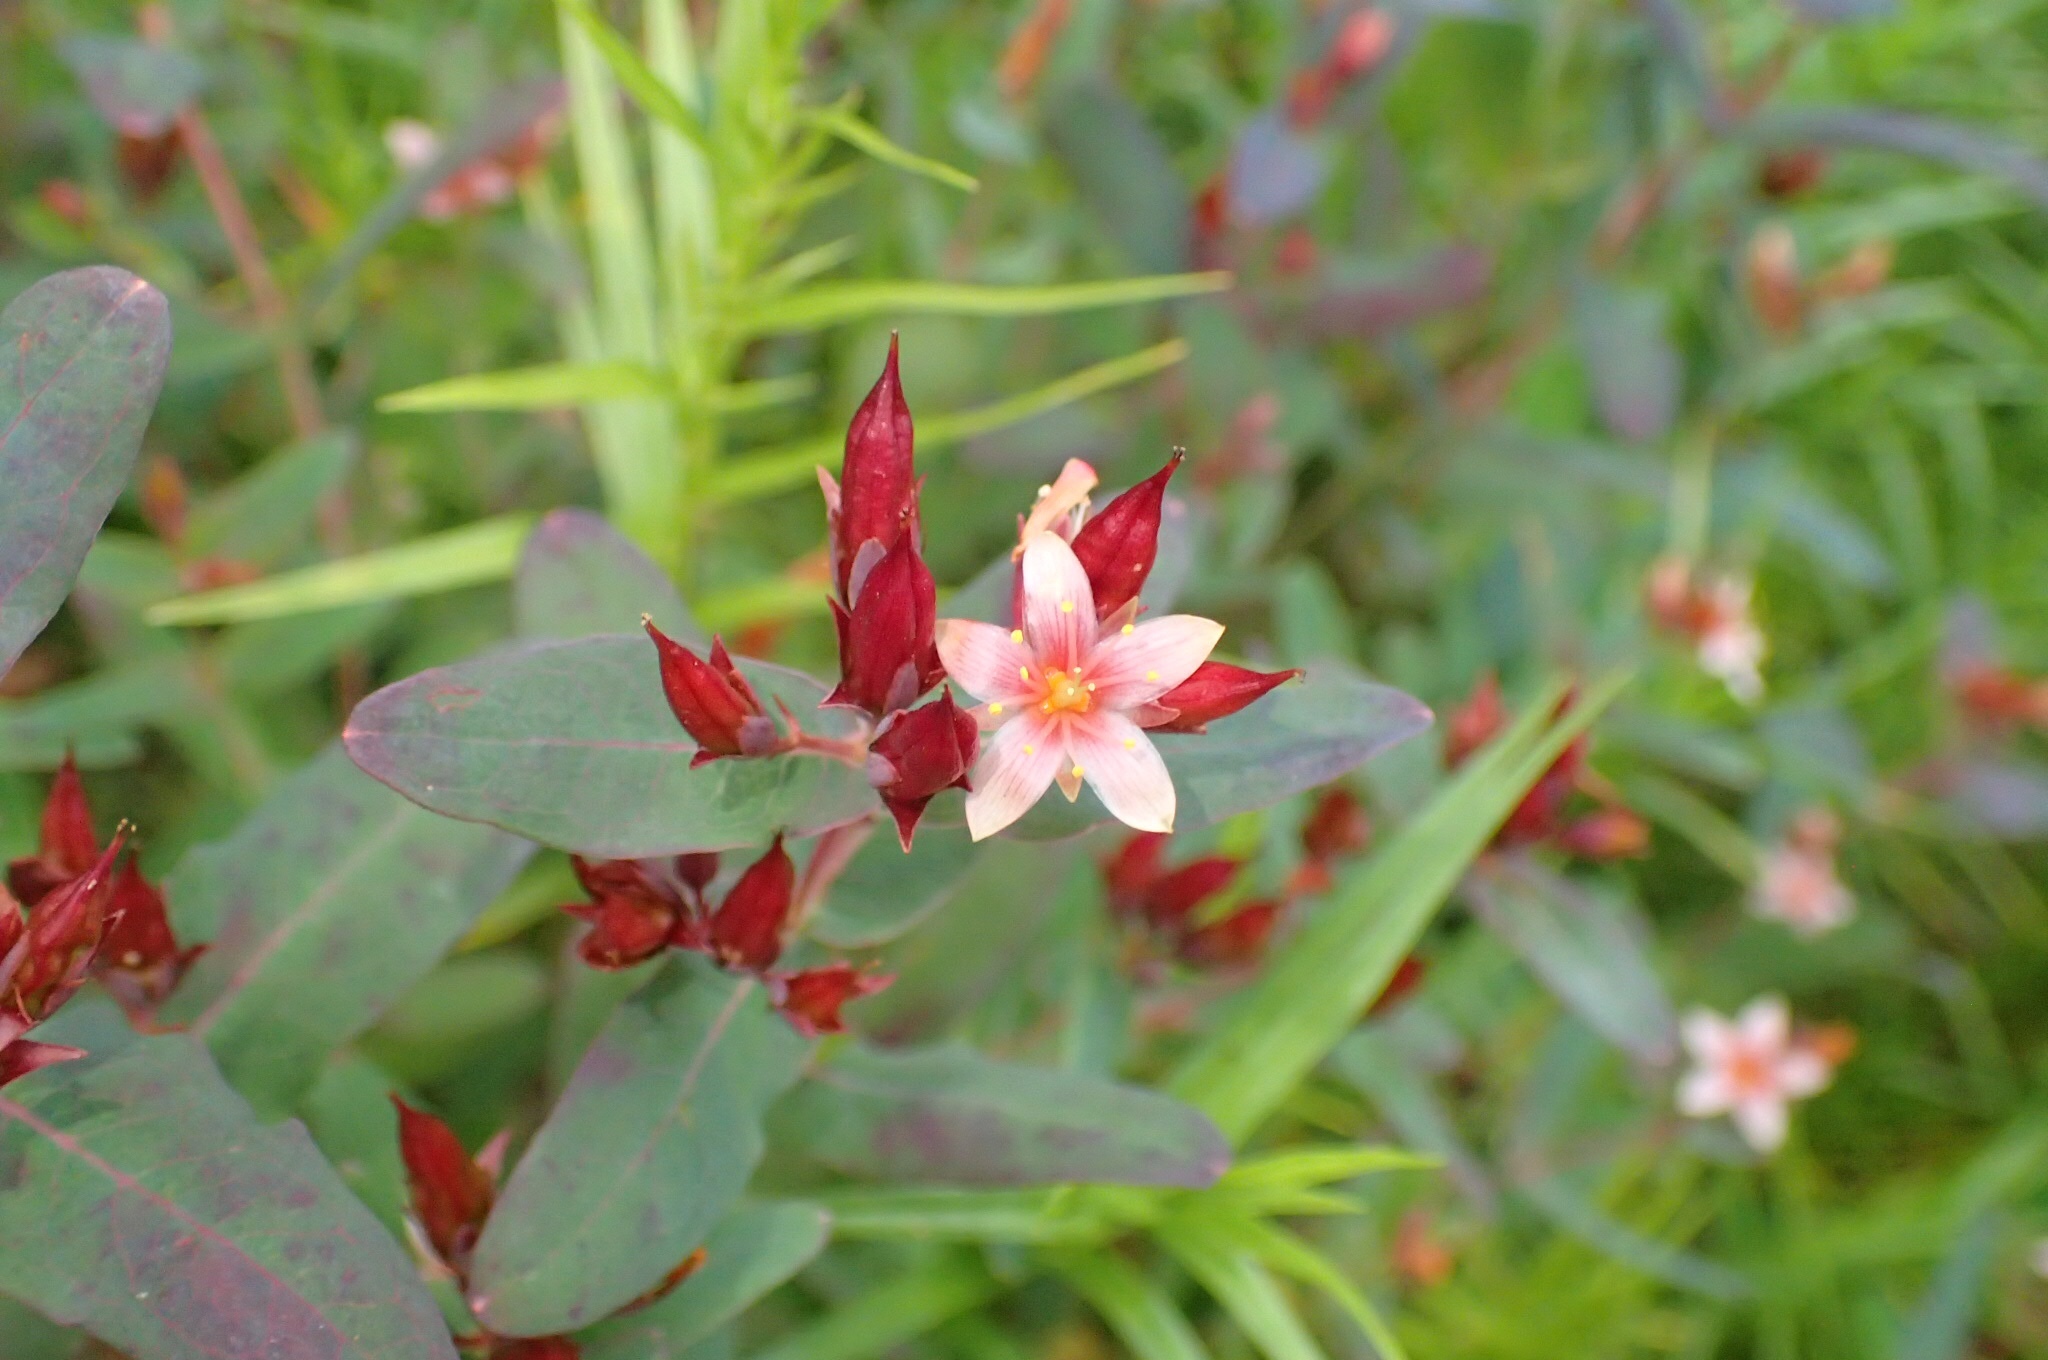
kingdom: Plantae
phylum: Tracheophyta
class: Magnoliopsida
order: Malpighiales
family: Hypericaceae
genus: Triadenum
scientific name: Triadenum virginicum
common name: Marsh st. john's-wort
